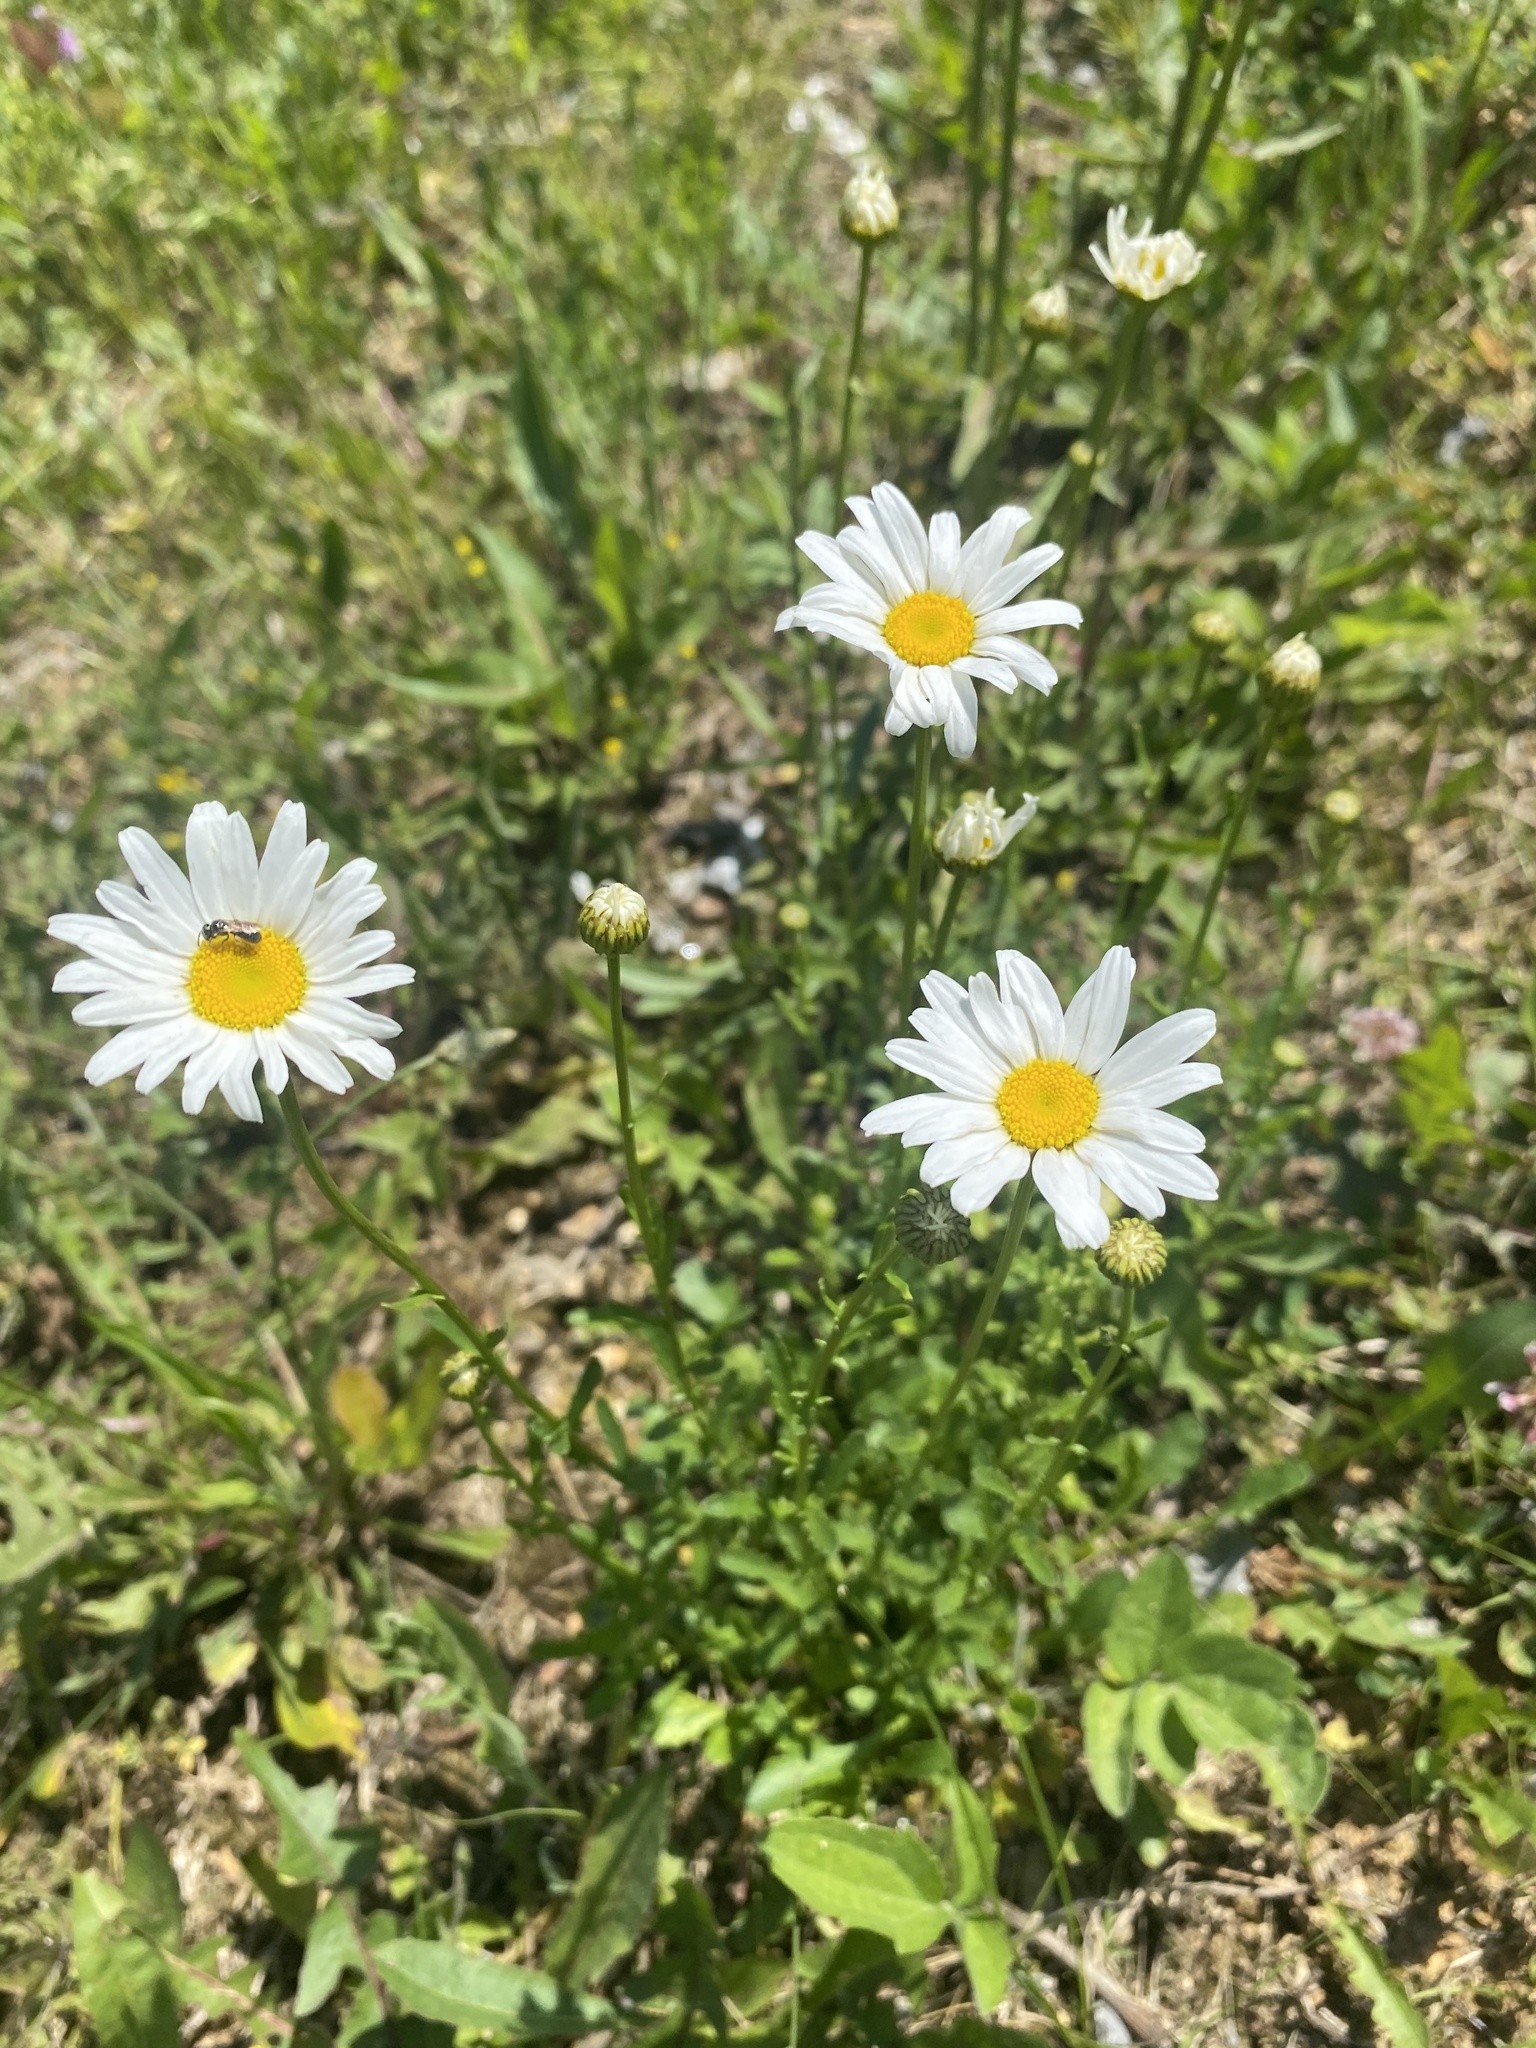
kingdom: Plantae
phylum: Tracheophyta
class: Magnoliopsida
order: Asterales
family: Asteraceae
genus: Leucanthemum
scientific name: Leucanthemum vulgare
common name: Oxeye daisy
